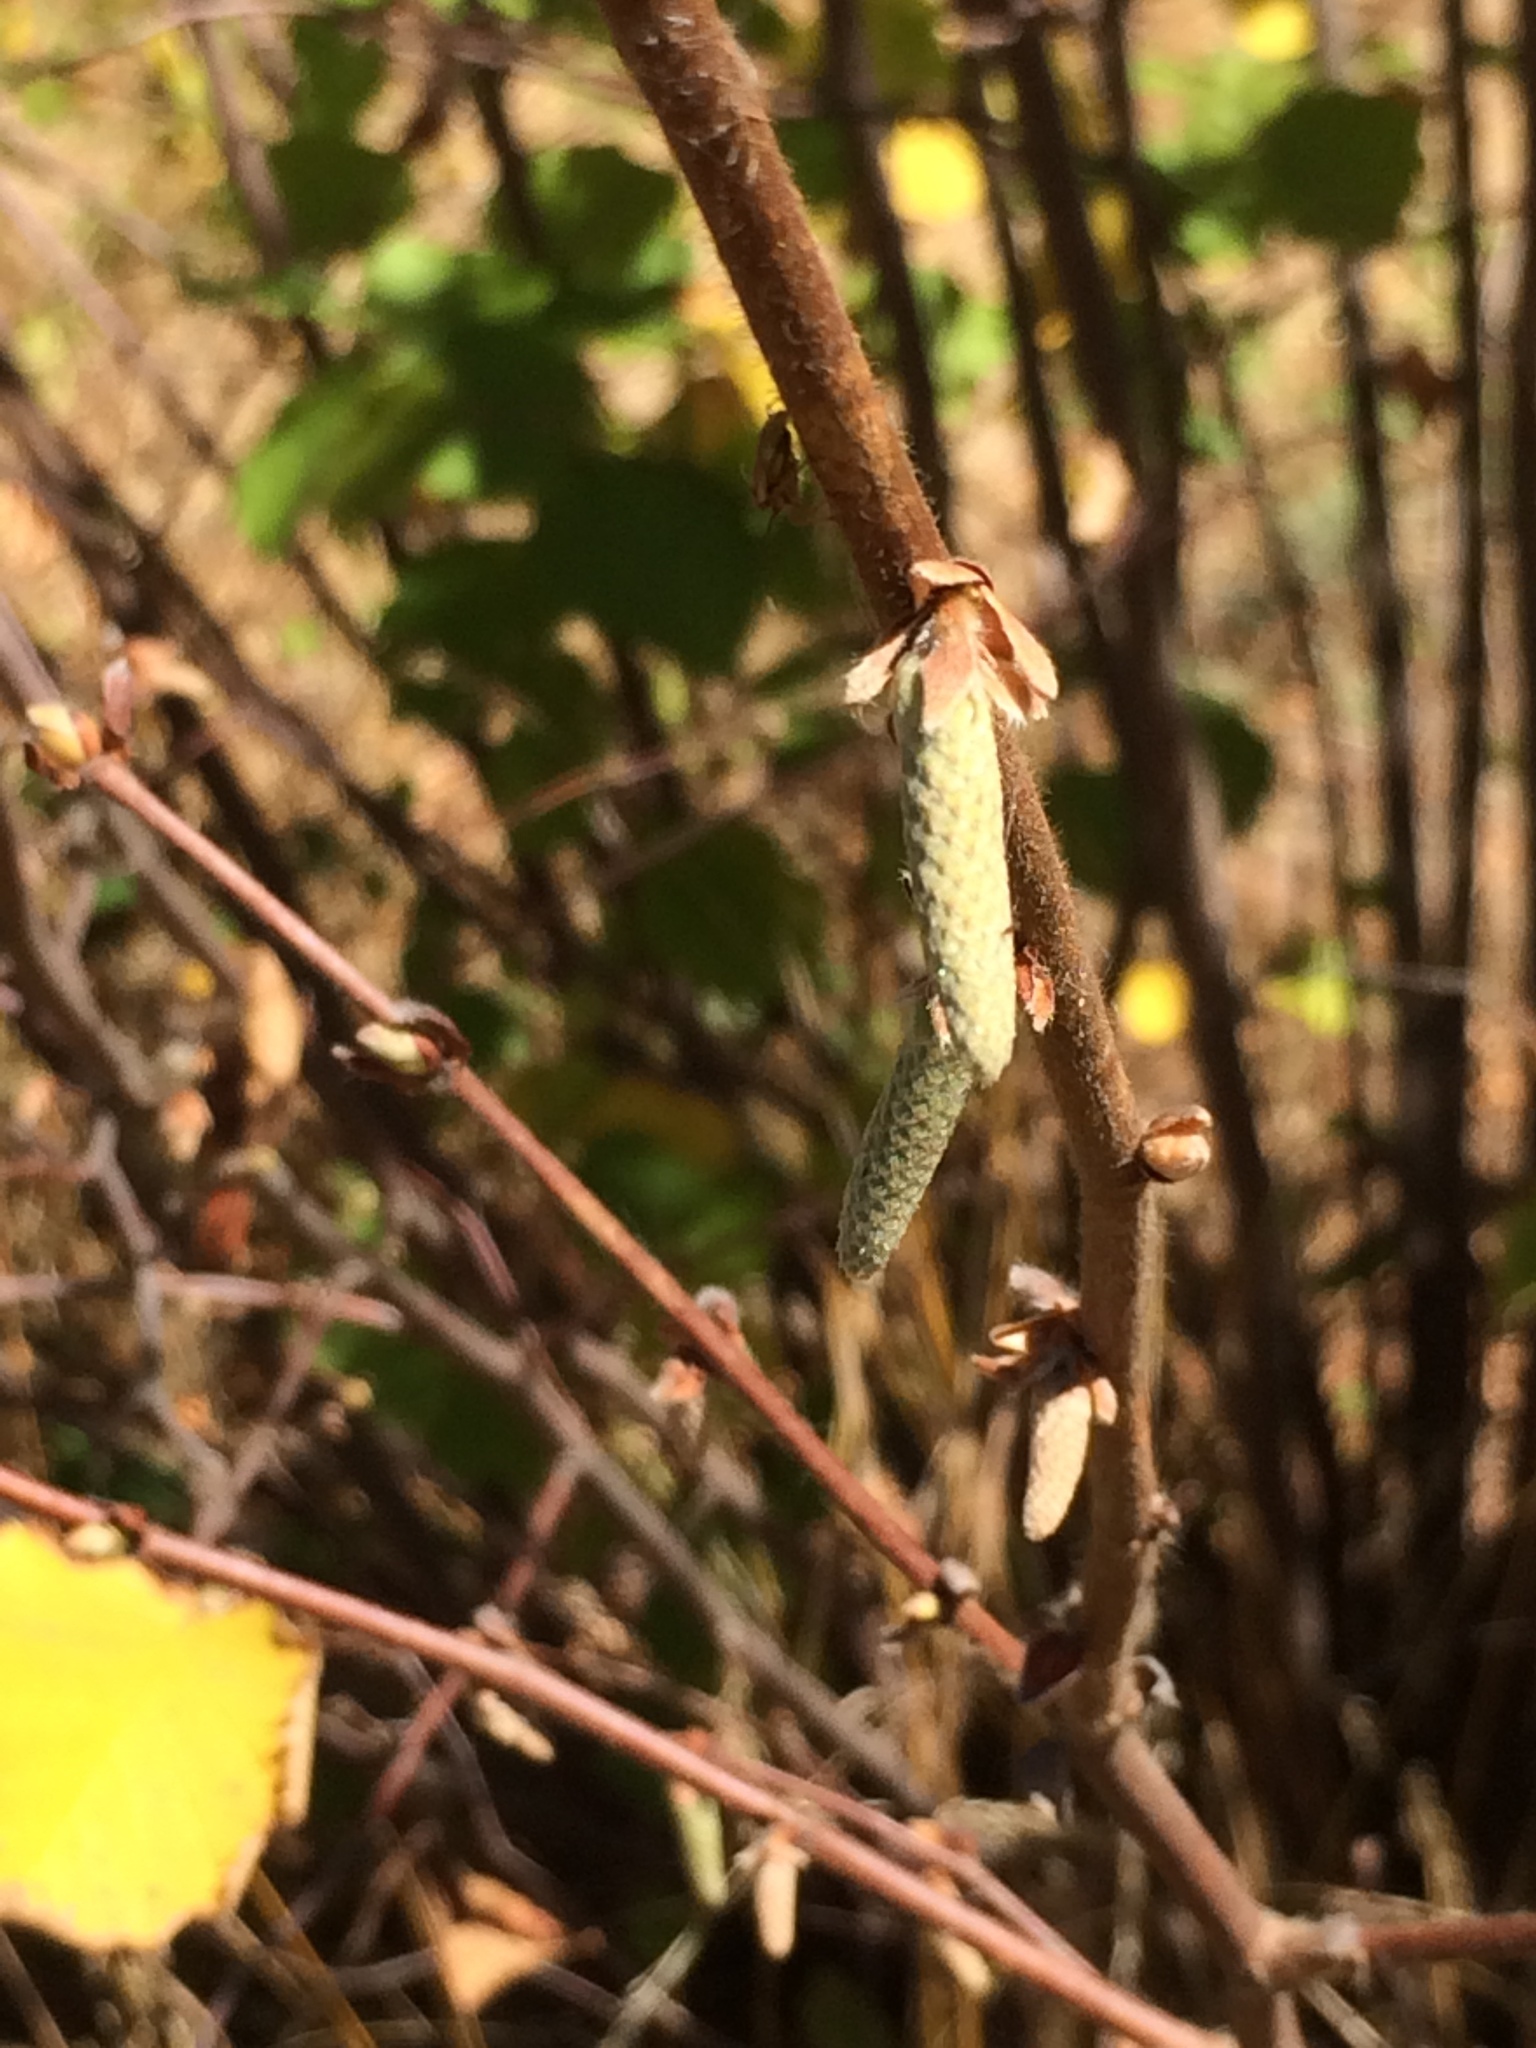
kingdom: Plantae
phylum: Tracheophyta
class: Magnoliopsida
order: Fagales
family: Betulaceae
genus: Corylus
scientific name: Corylus cornuta
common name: Beaked hazel
